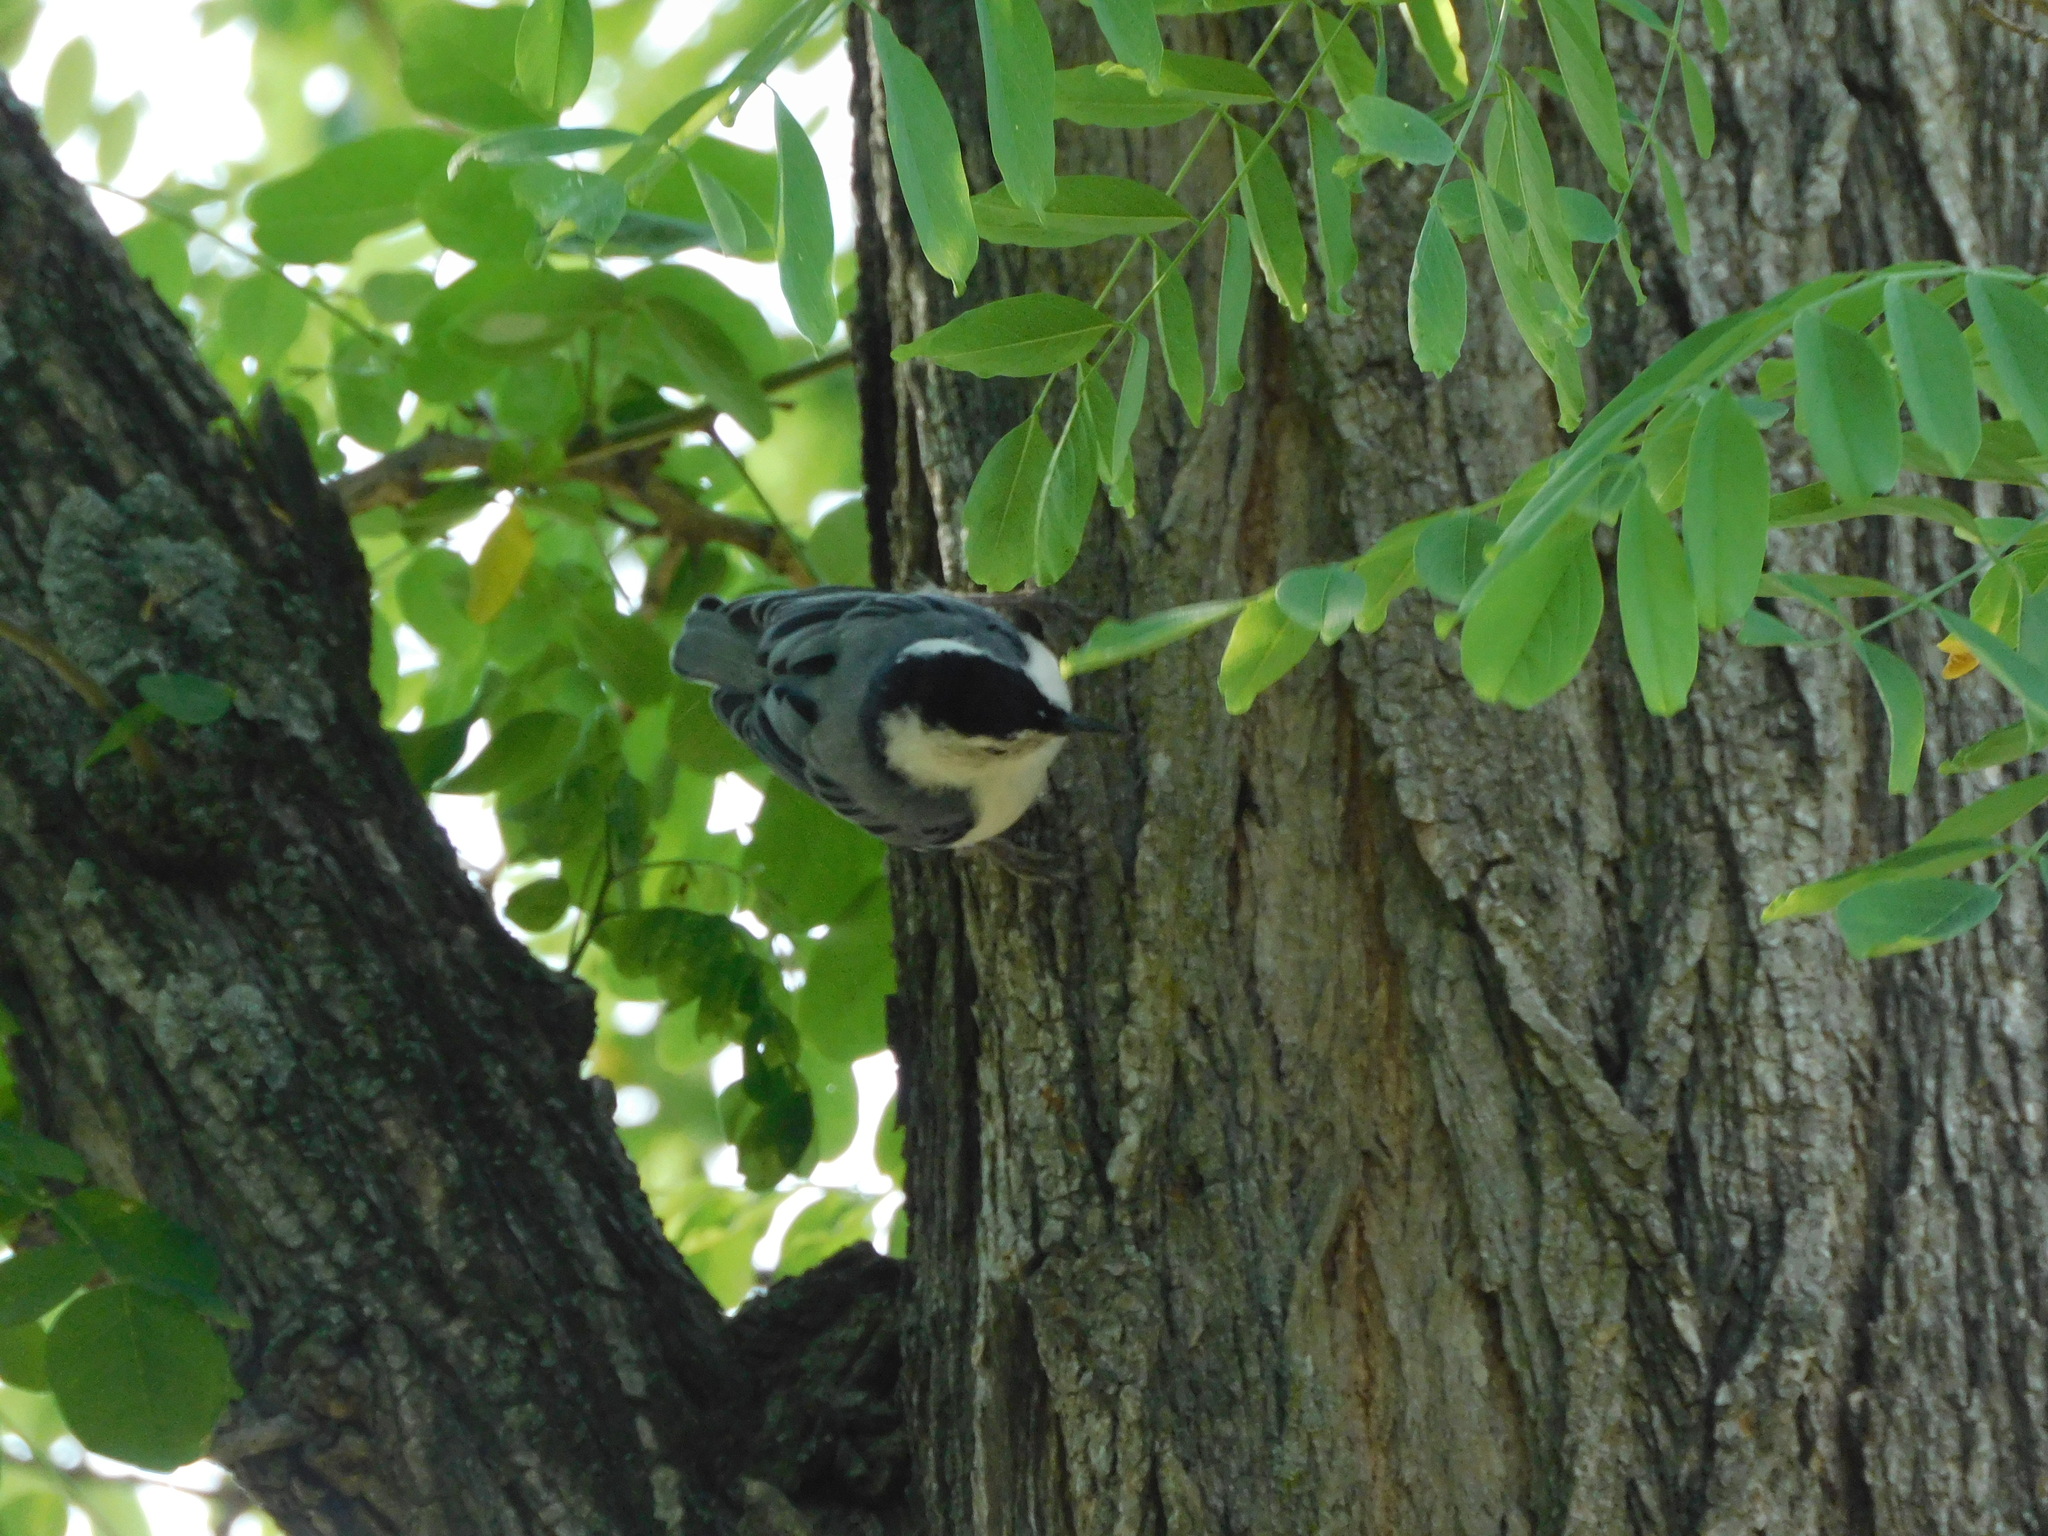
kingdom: Animalia
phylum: Chordata
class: Aves
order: Passeriformes
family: Sittidae
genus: Sitta
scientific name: Sitta carolinensis
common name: White-breasted nuthatch
